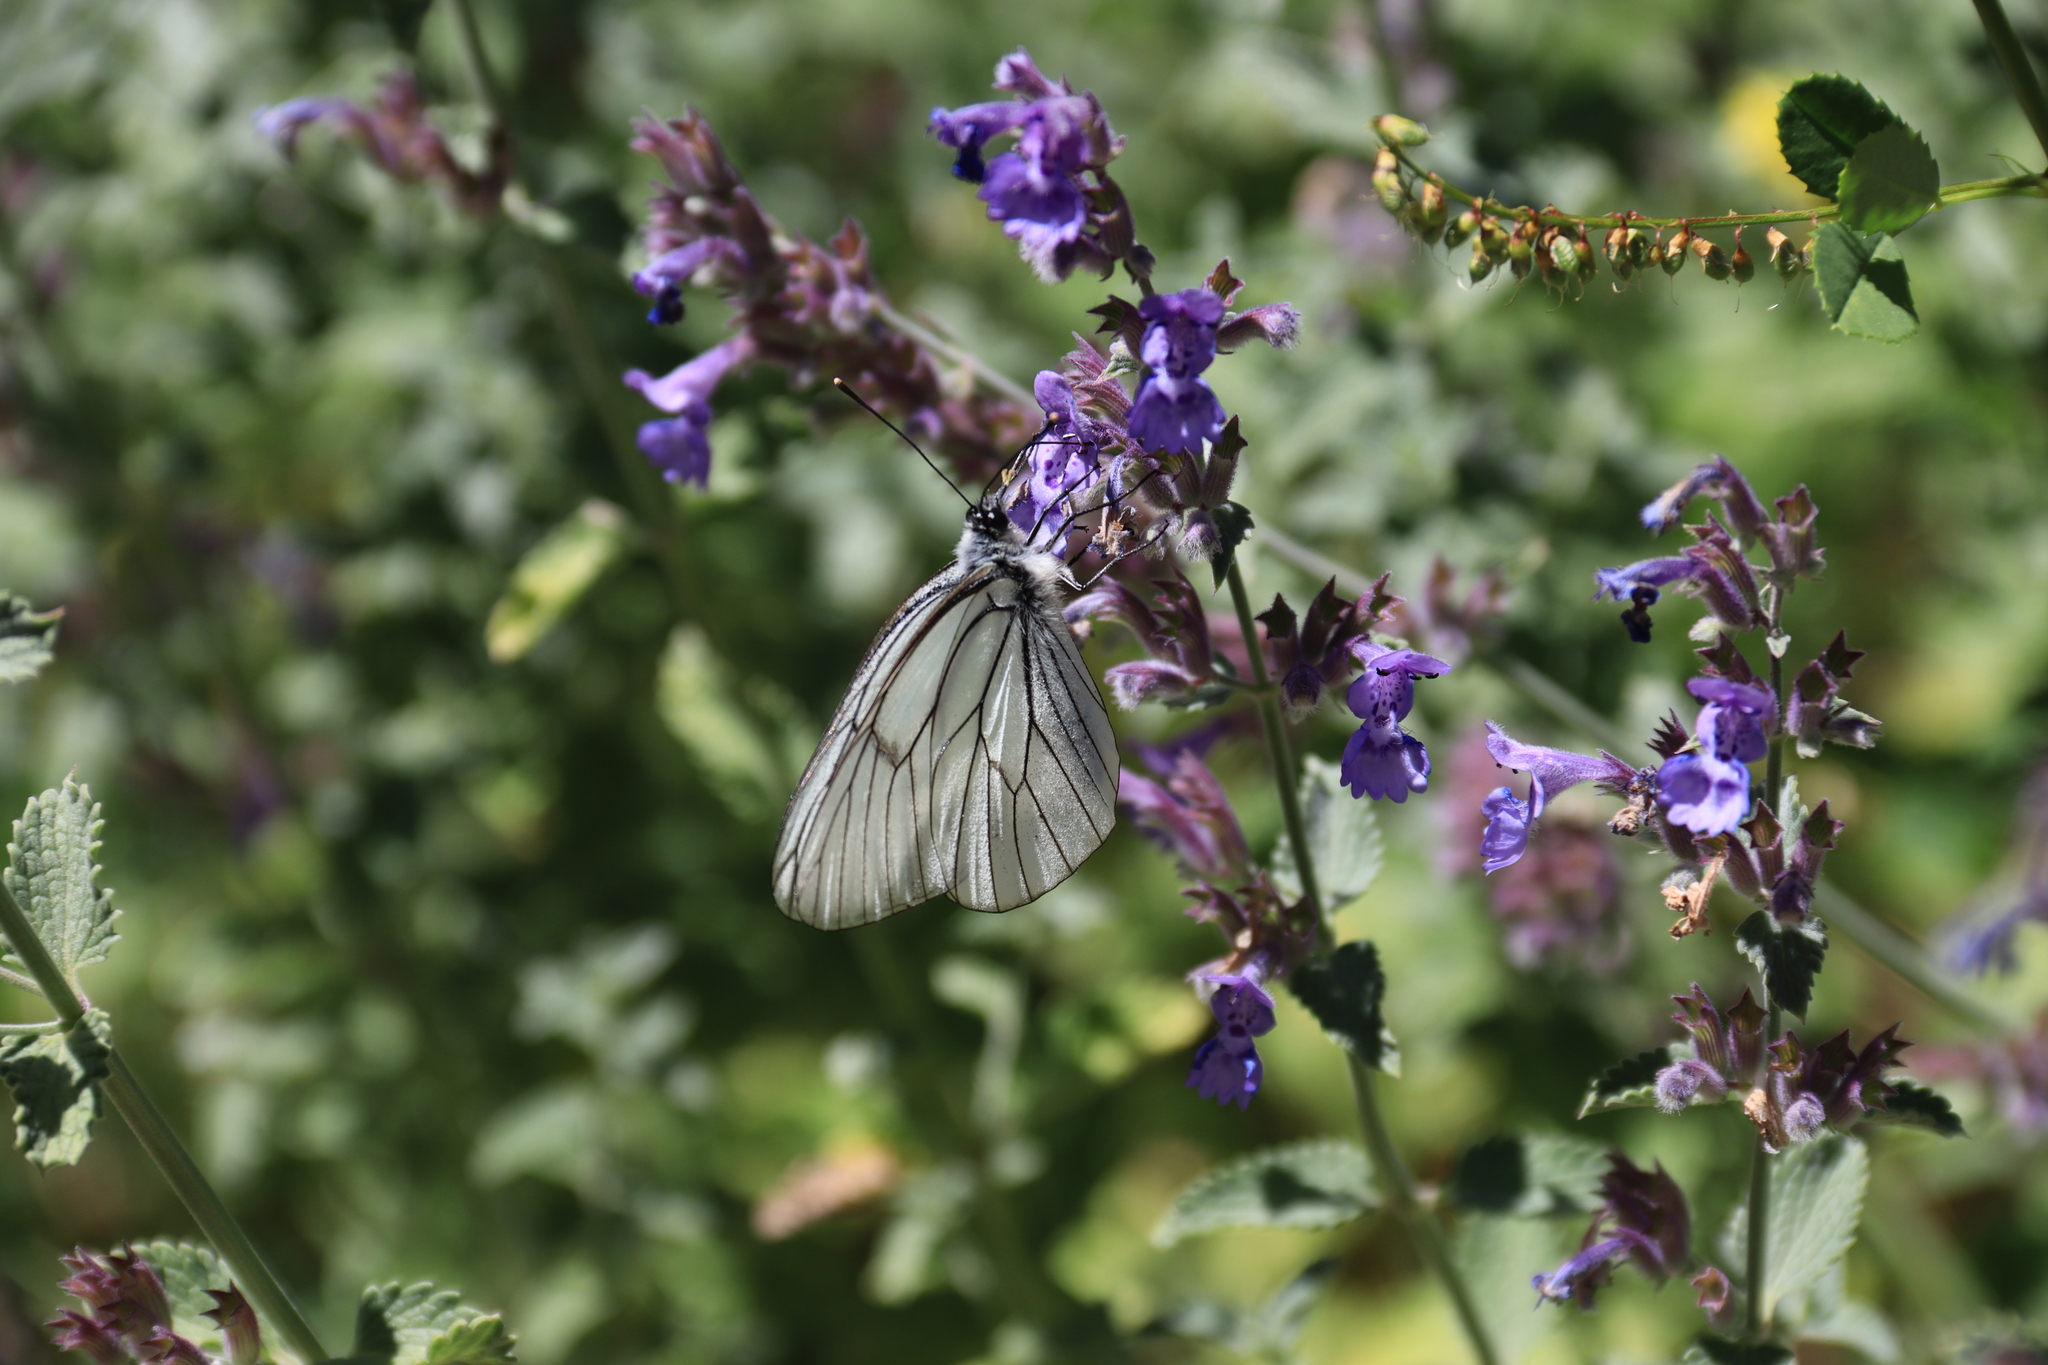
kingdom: Animalia
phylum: Arthropoda
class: Insecta
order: Lepidoptera
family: Pieridae
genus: Aporia
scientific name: Aporia crataegi
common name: Black-veined white
